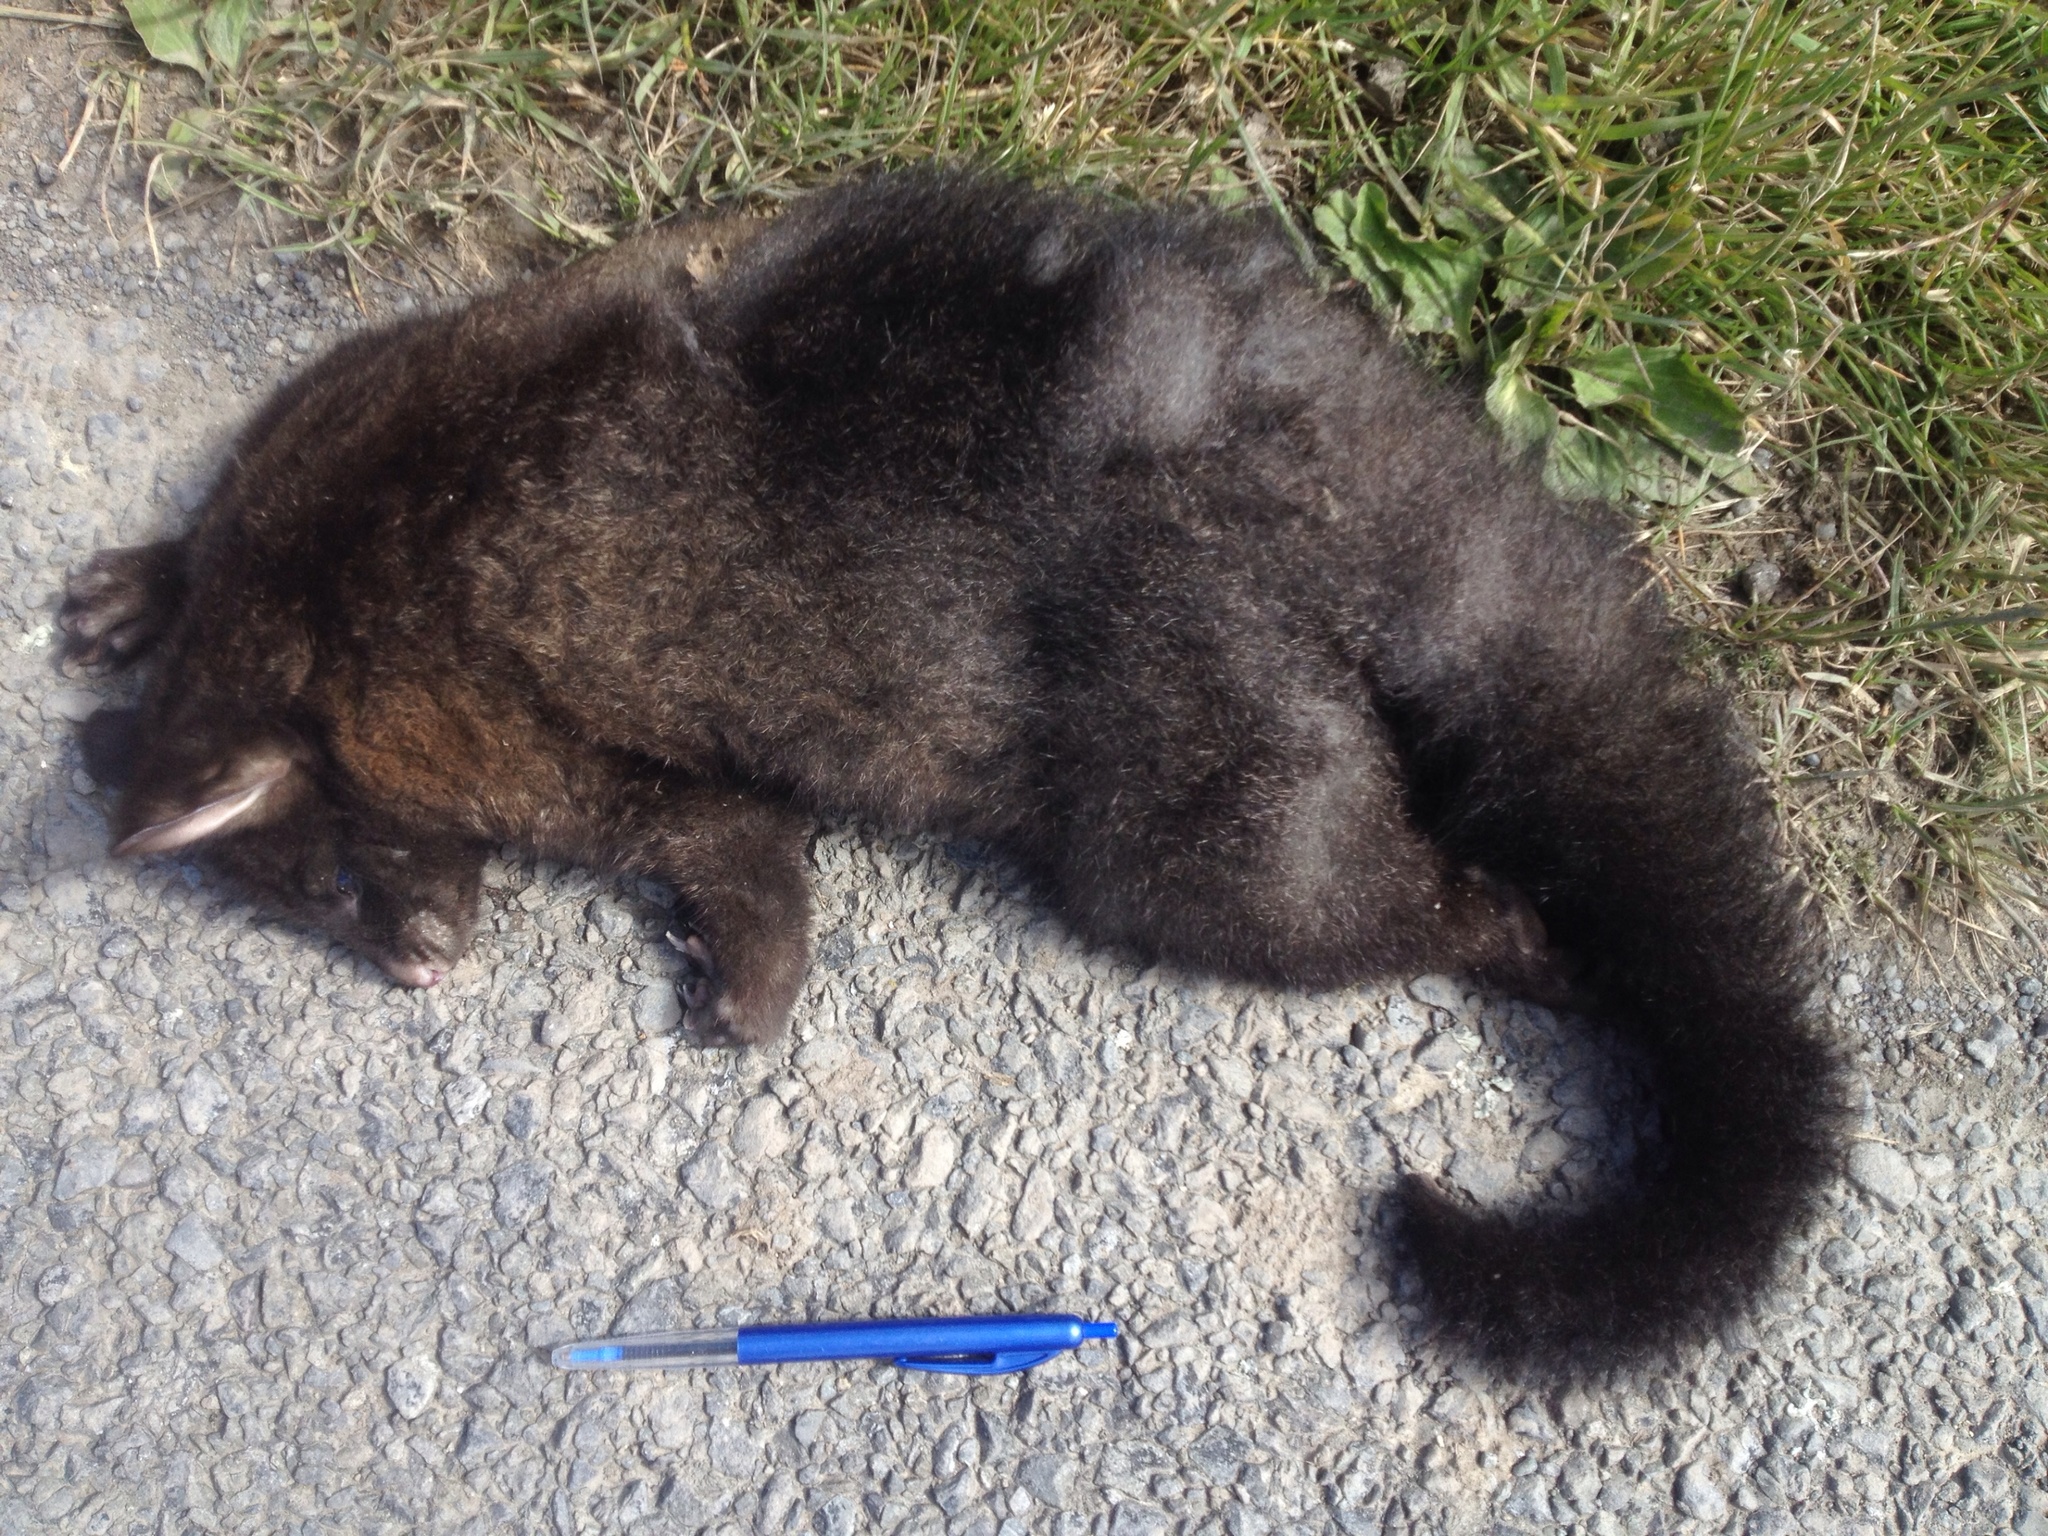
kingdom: Animalia
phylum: Chordata
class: Mammalia
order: Diprotodontia
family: Phalangeridae
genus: Trichosurus
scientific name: Trichosurus vulpecula
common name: Common brushtail
